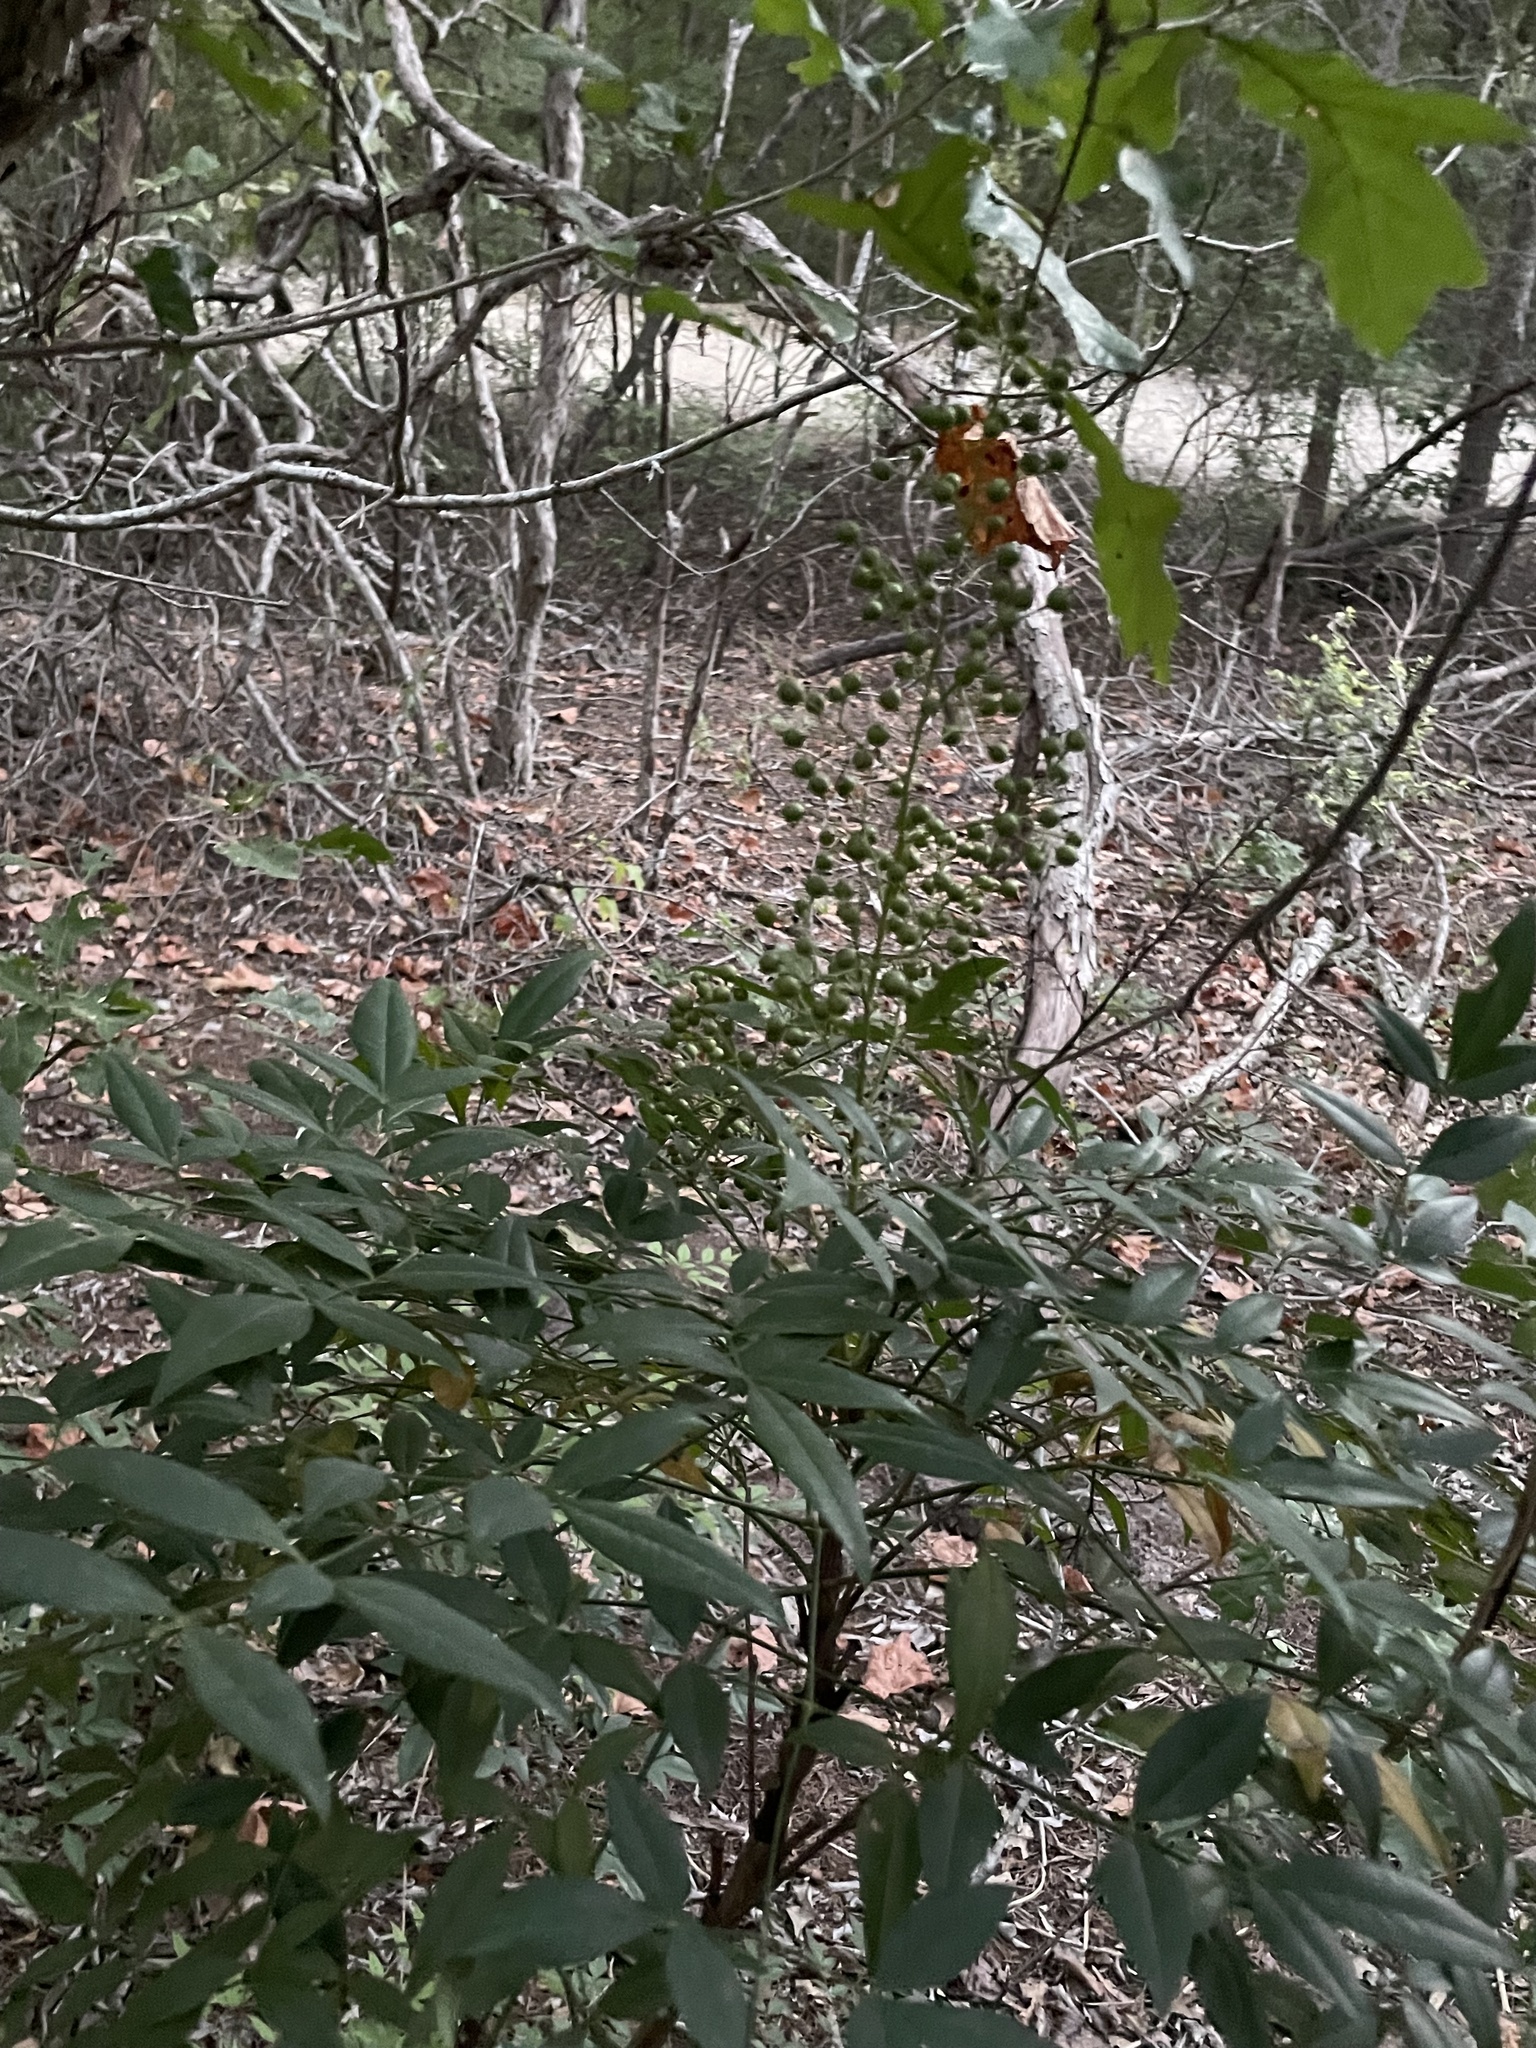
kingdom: Plantae
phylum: Tracheophyta
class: Magnoliopsida
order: Ranunculales
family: Berberidaceae
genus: Nandina
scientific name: Nandina domestica
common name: Sacred bamboo
